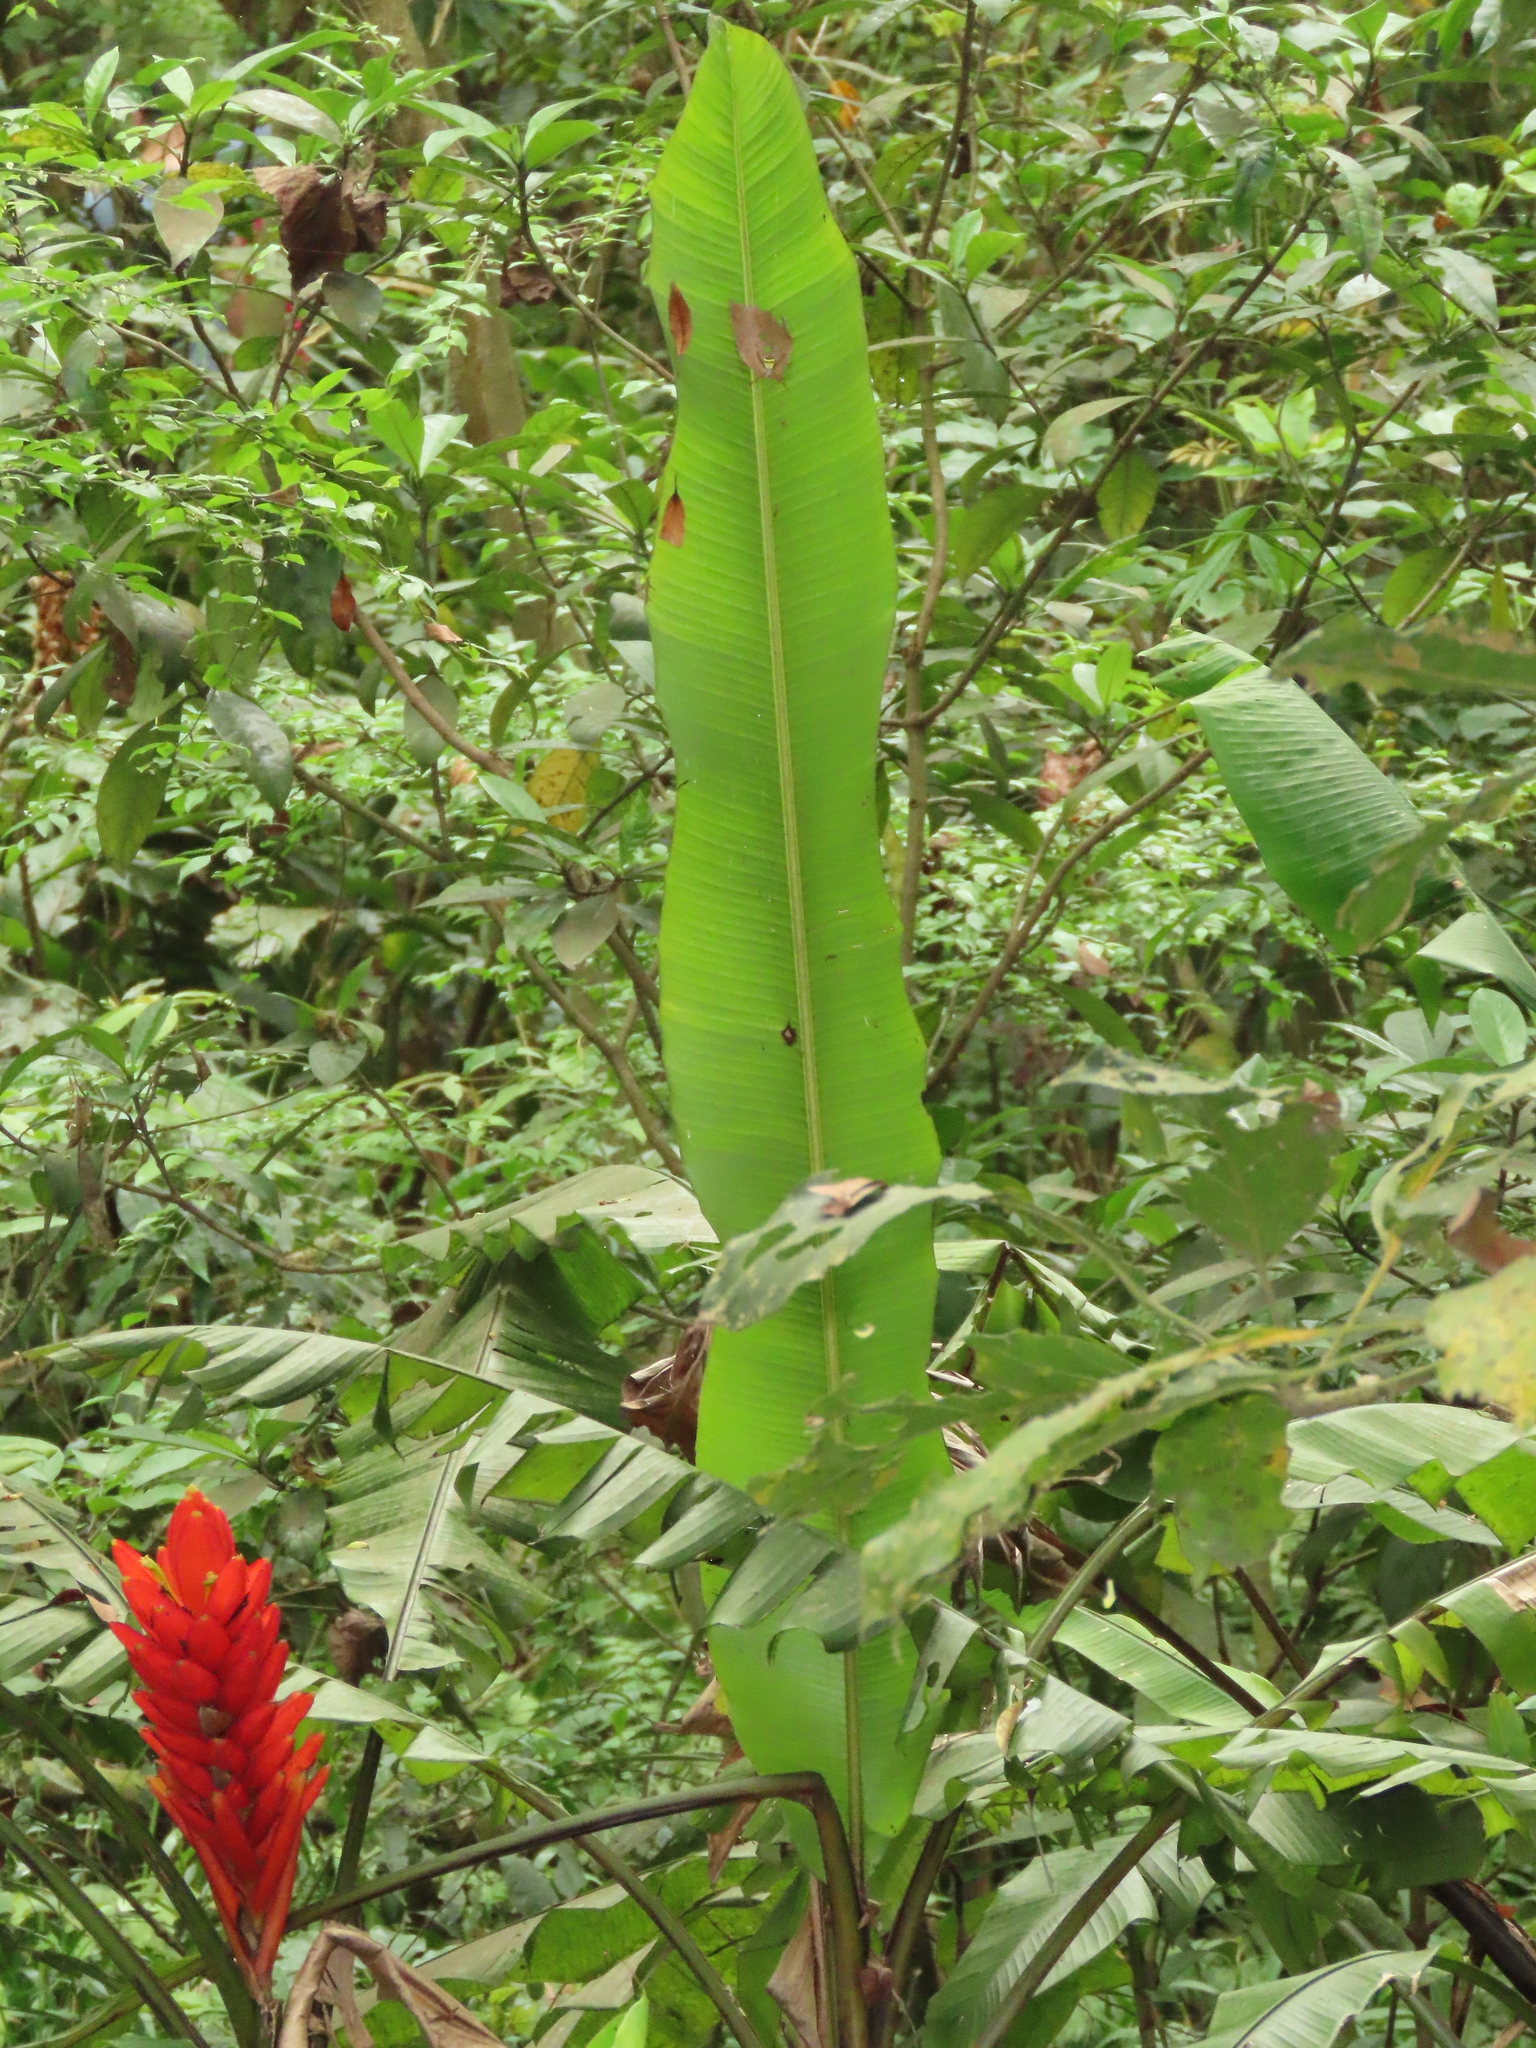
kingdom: Plantae
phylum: Tracheophyta
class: Liliopsida
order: Zingiberales
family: Musaceae
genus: Musa
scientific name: Musa coccinea
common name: Scarlet banana
